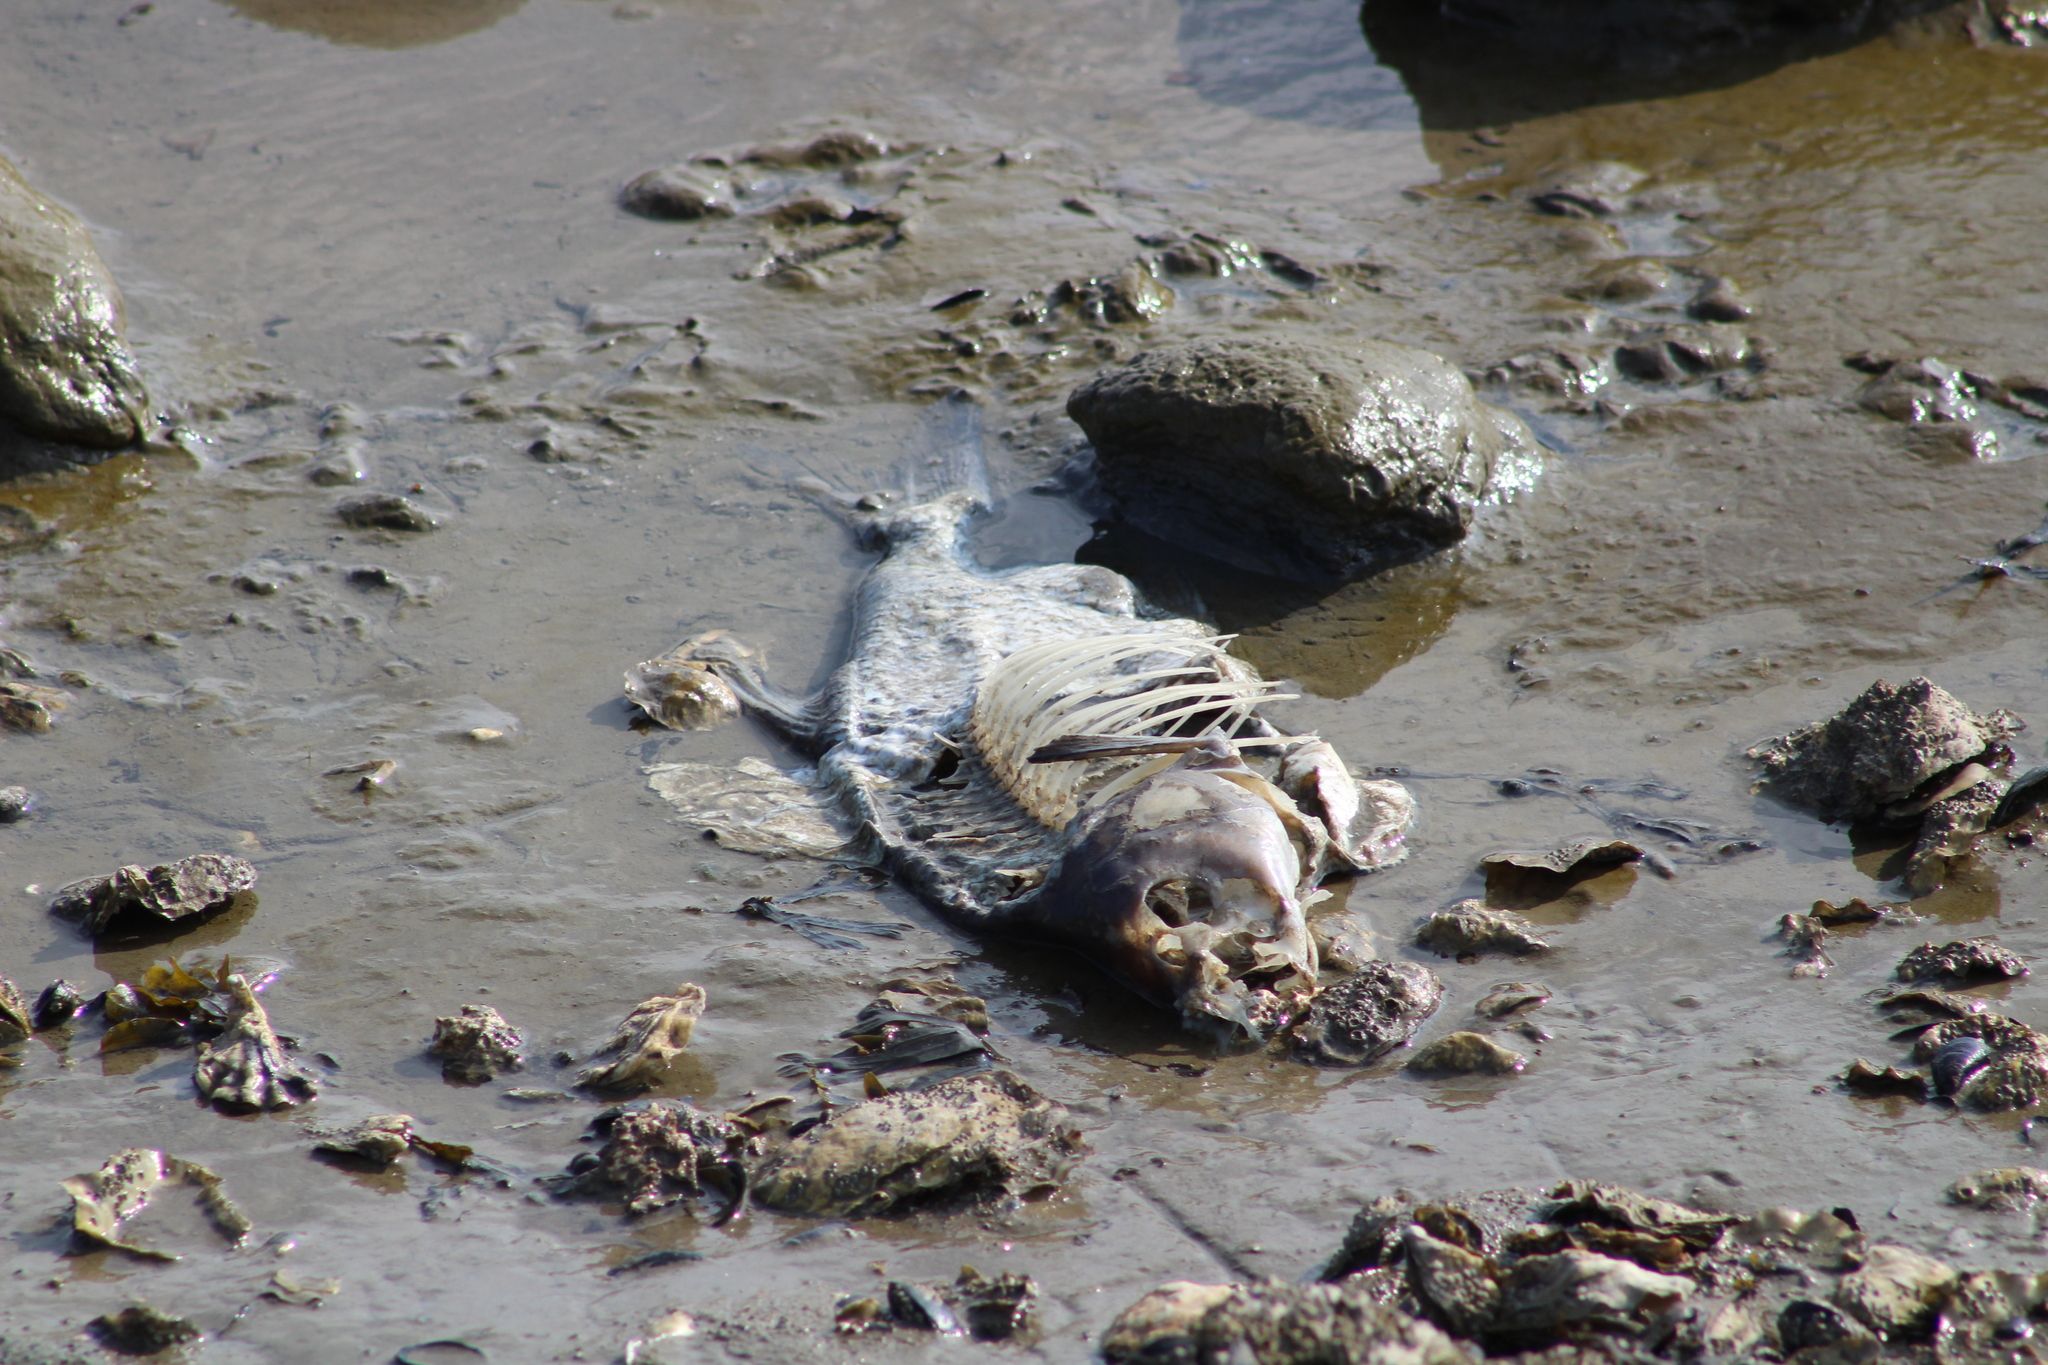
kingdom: Animalia
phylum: Chordata
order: Cypriniformes
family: Cyprinidae
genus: Cyprinus
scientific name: Cyprinus
